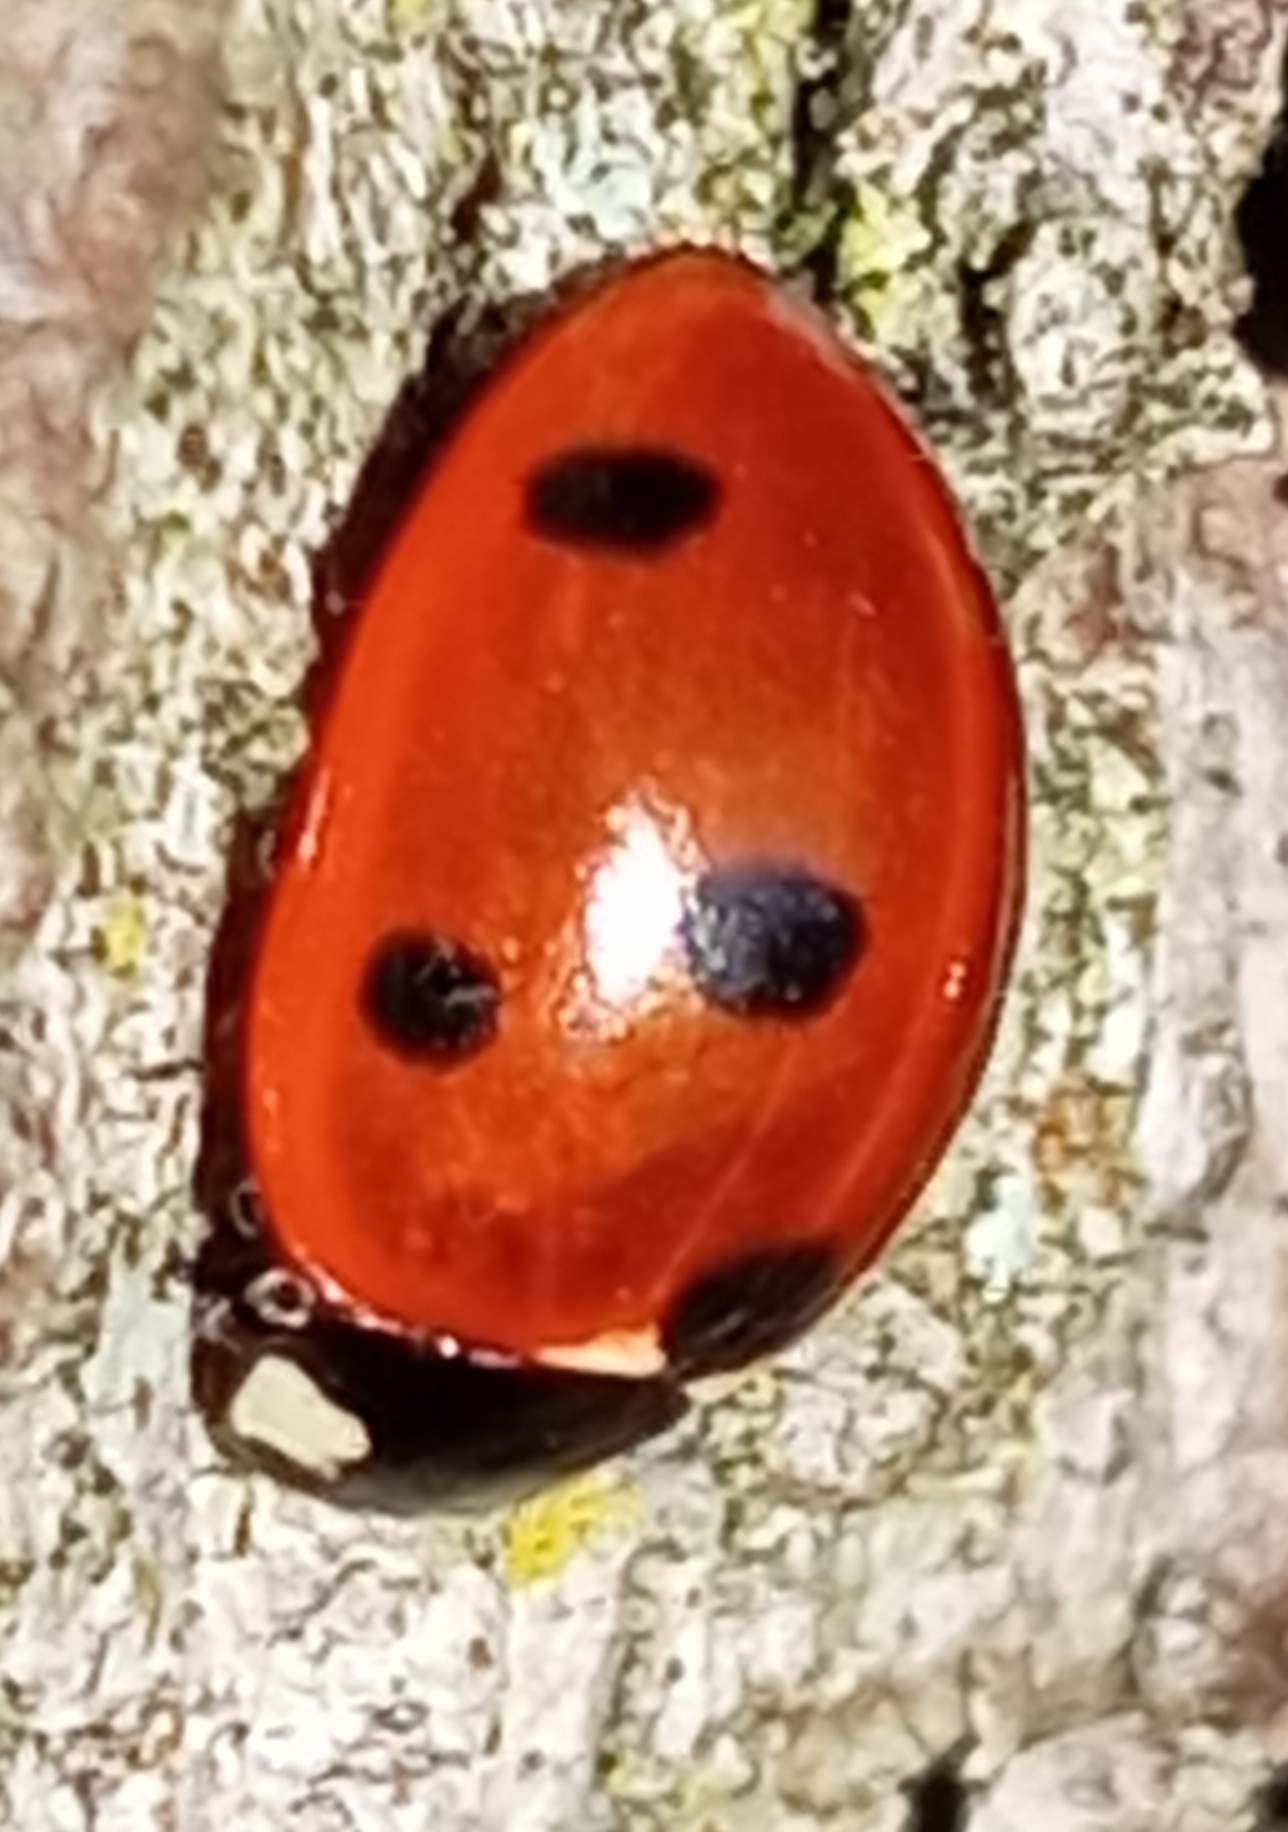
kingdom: Animalia
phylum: Arthropoda
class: Insecta
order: Coleoptera
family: Coccinellidae
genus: Coccinella
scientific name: Coccinella septempunctata
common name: Sevenspotted lady beetle
